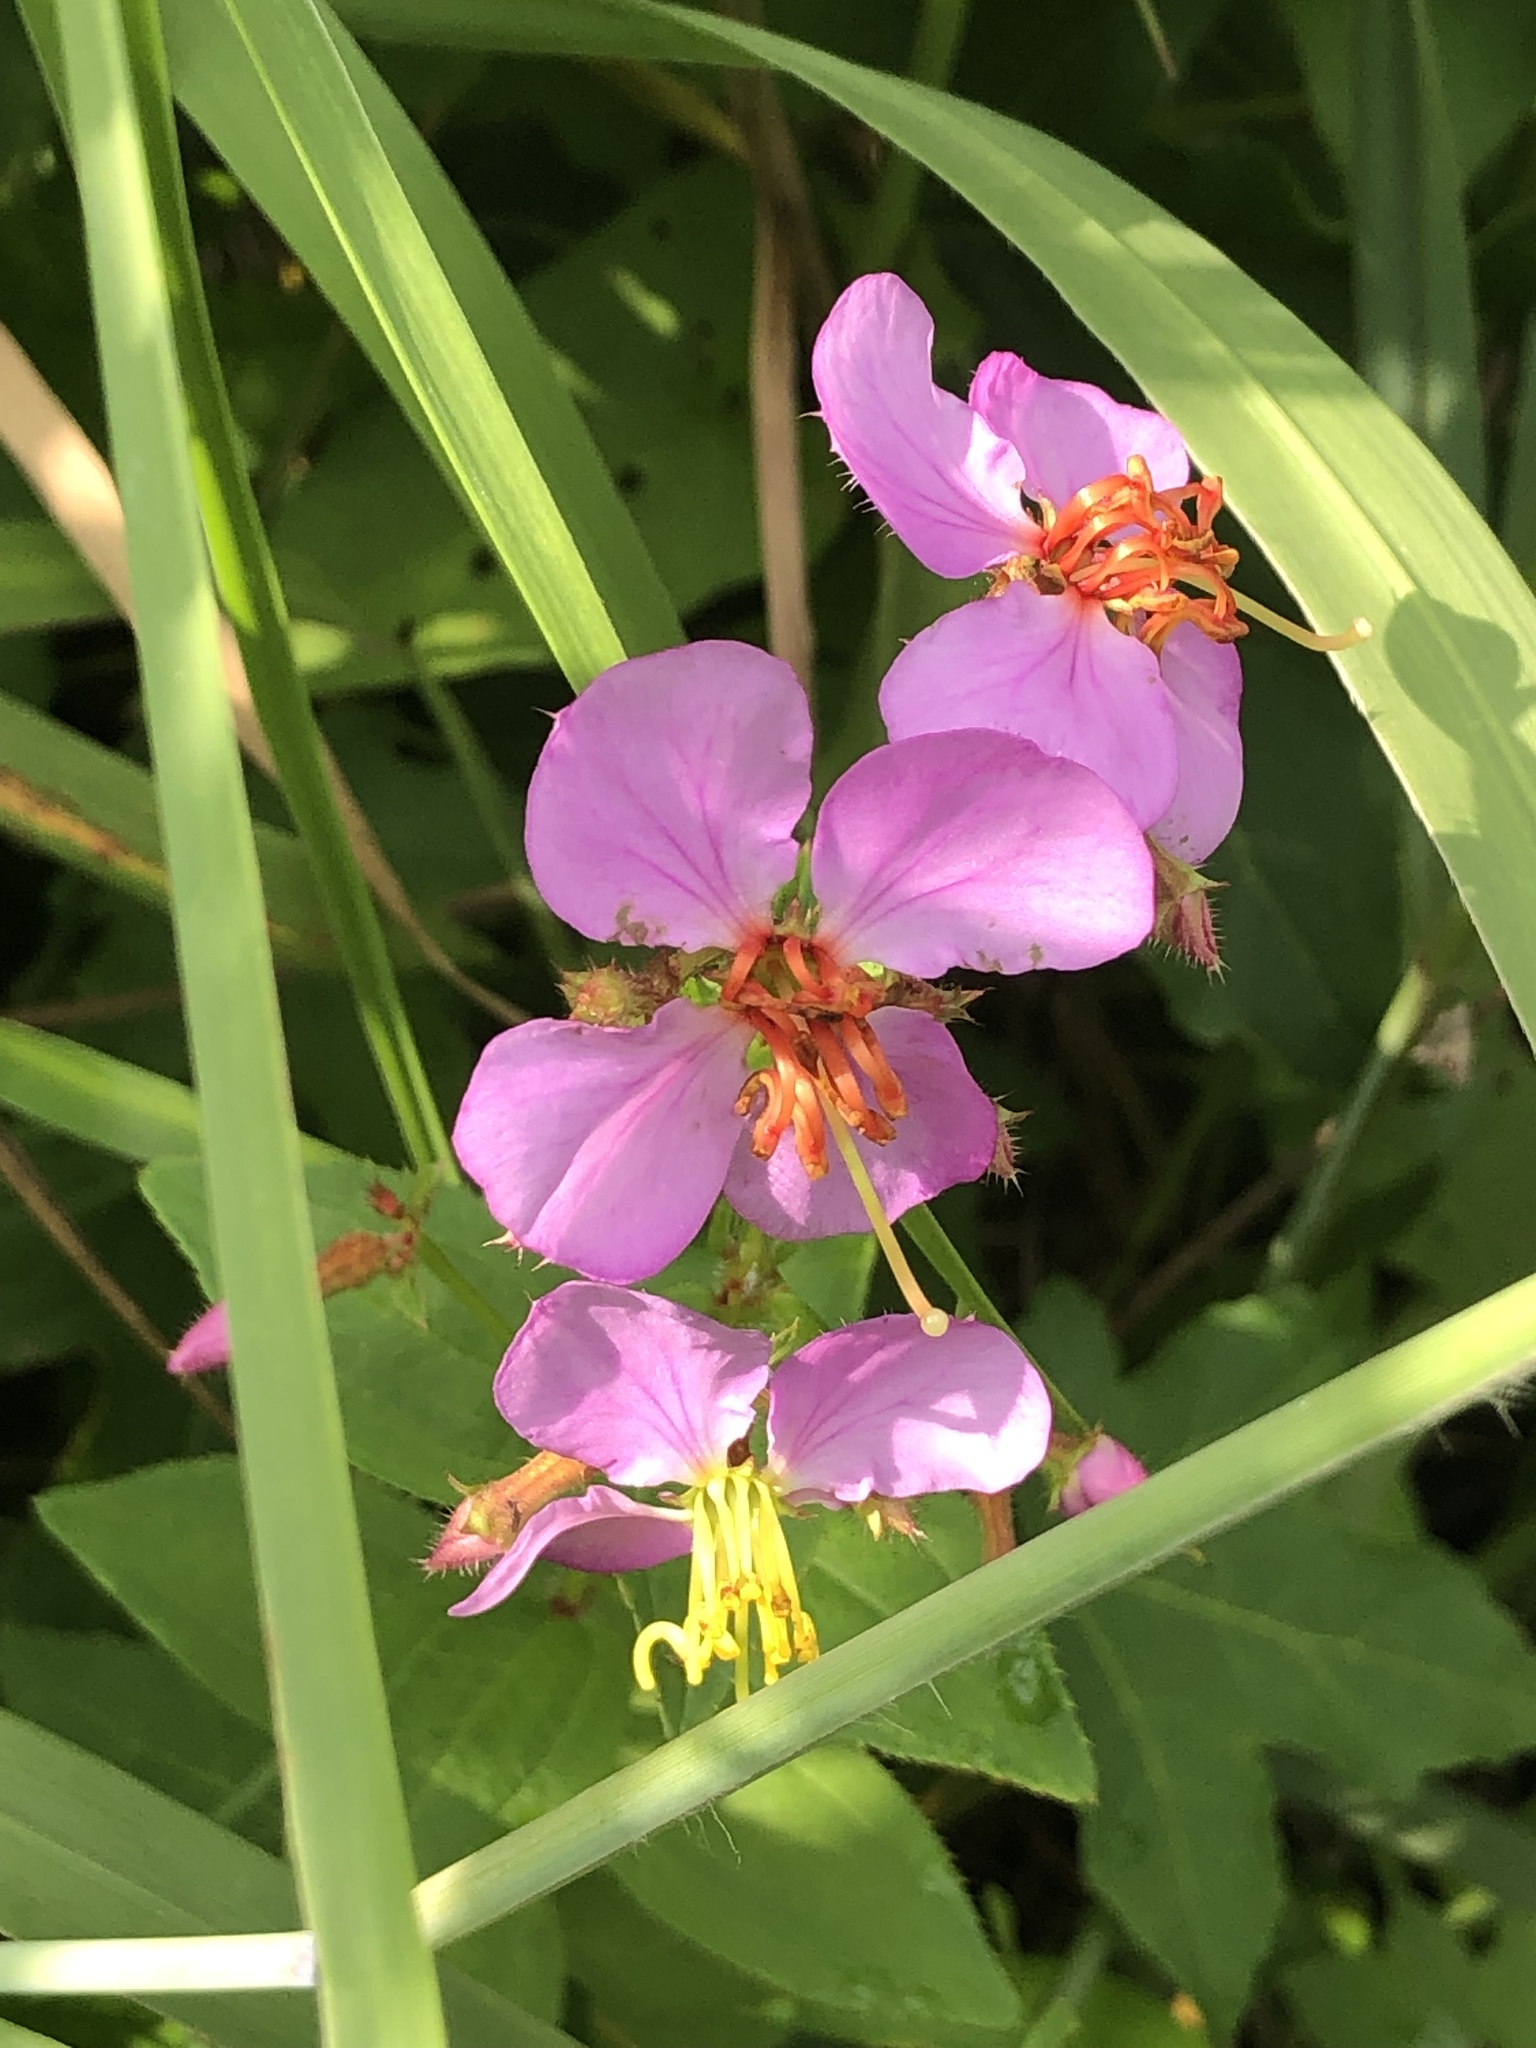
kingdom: Plantae
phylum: Tracheophyta
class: Magnoliopsida
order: Myrtales
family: Melastomataceae
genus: Rhexia
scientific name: Rhexia virginica
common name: Common meadow beauty
